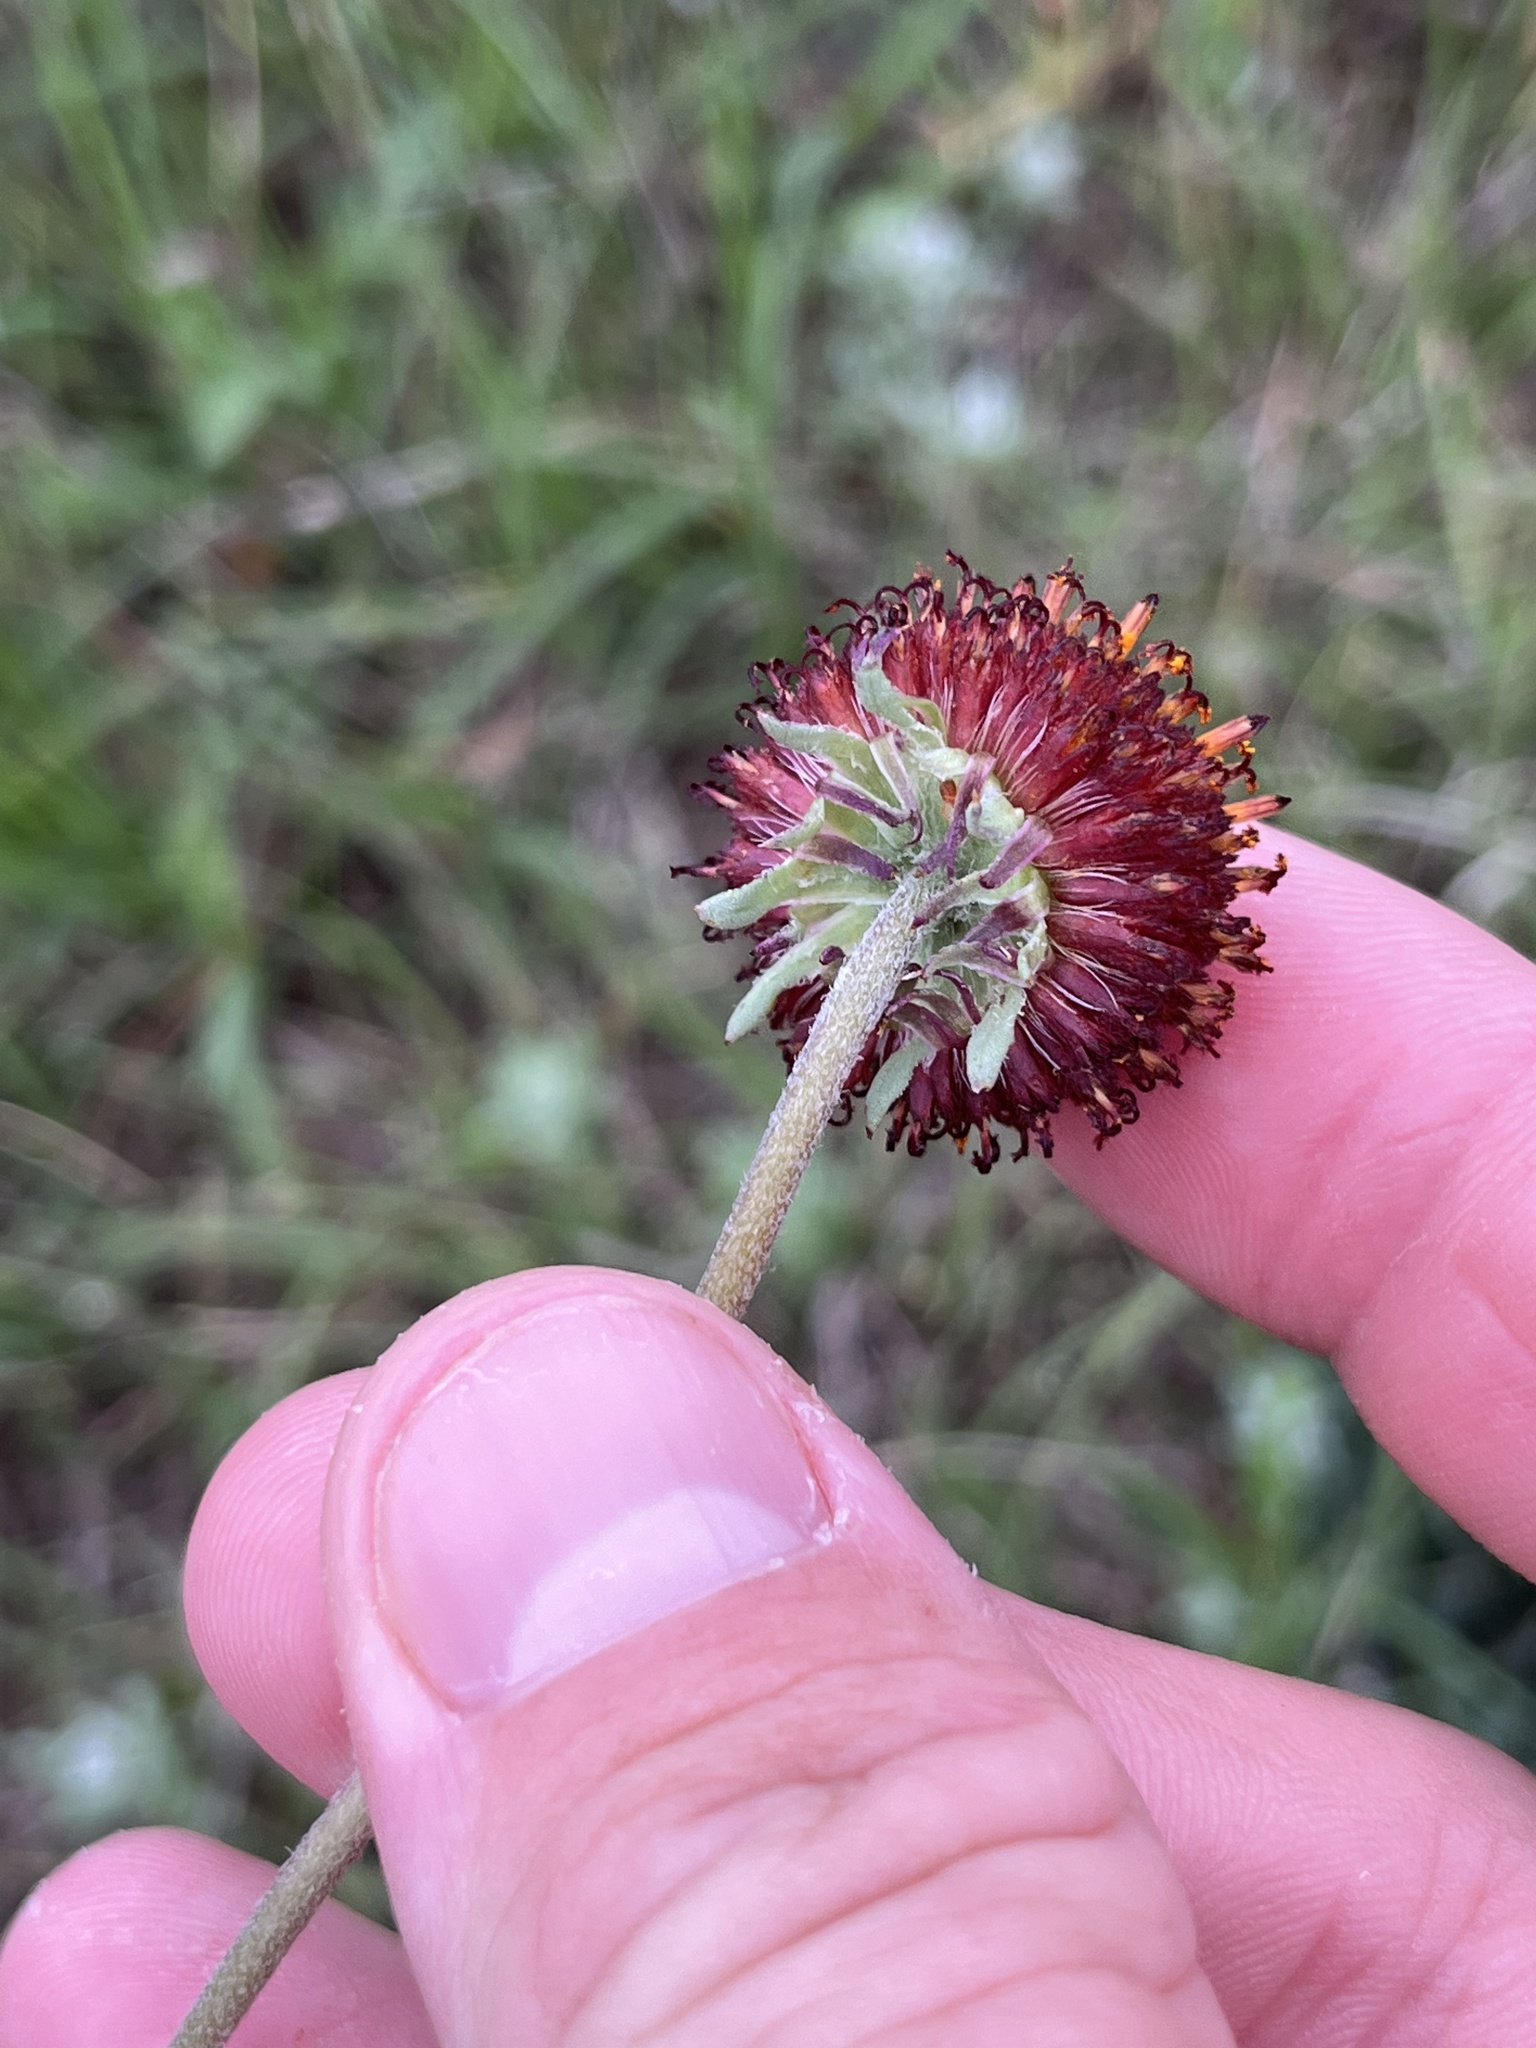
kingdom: Plantae
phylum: Tracheophyta
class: Magnoliopsida
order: Asterales
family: Asteraceae
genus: Gaillardia
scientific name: Gaillardia suavis
